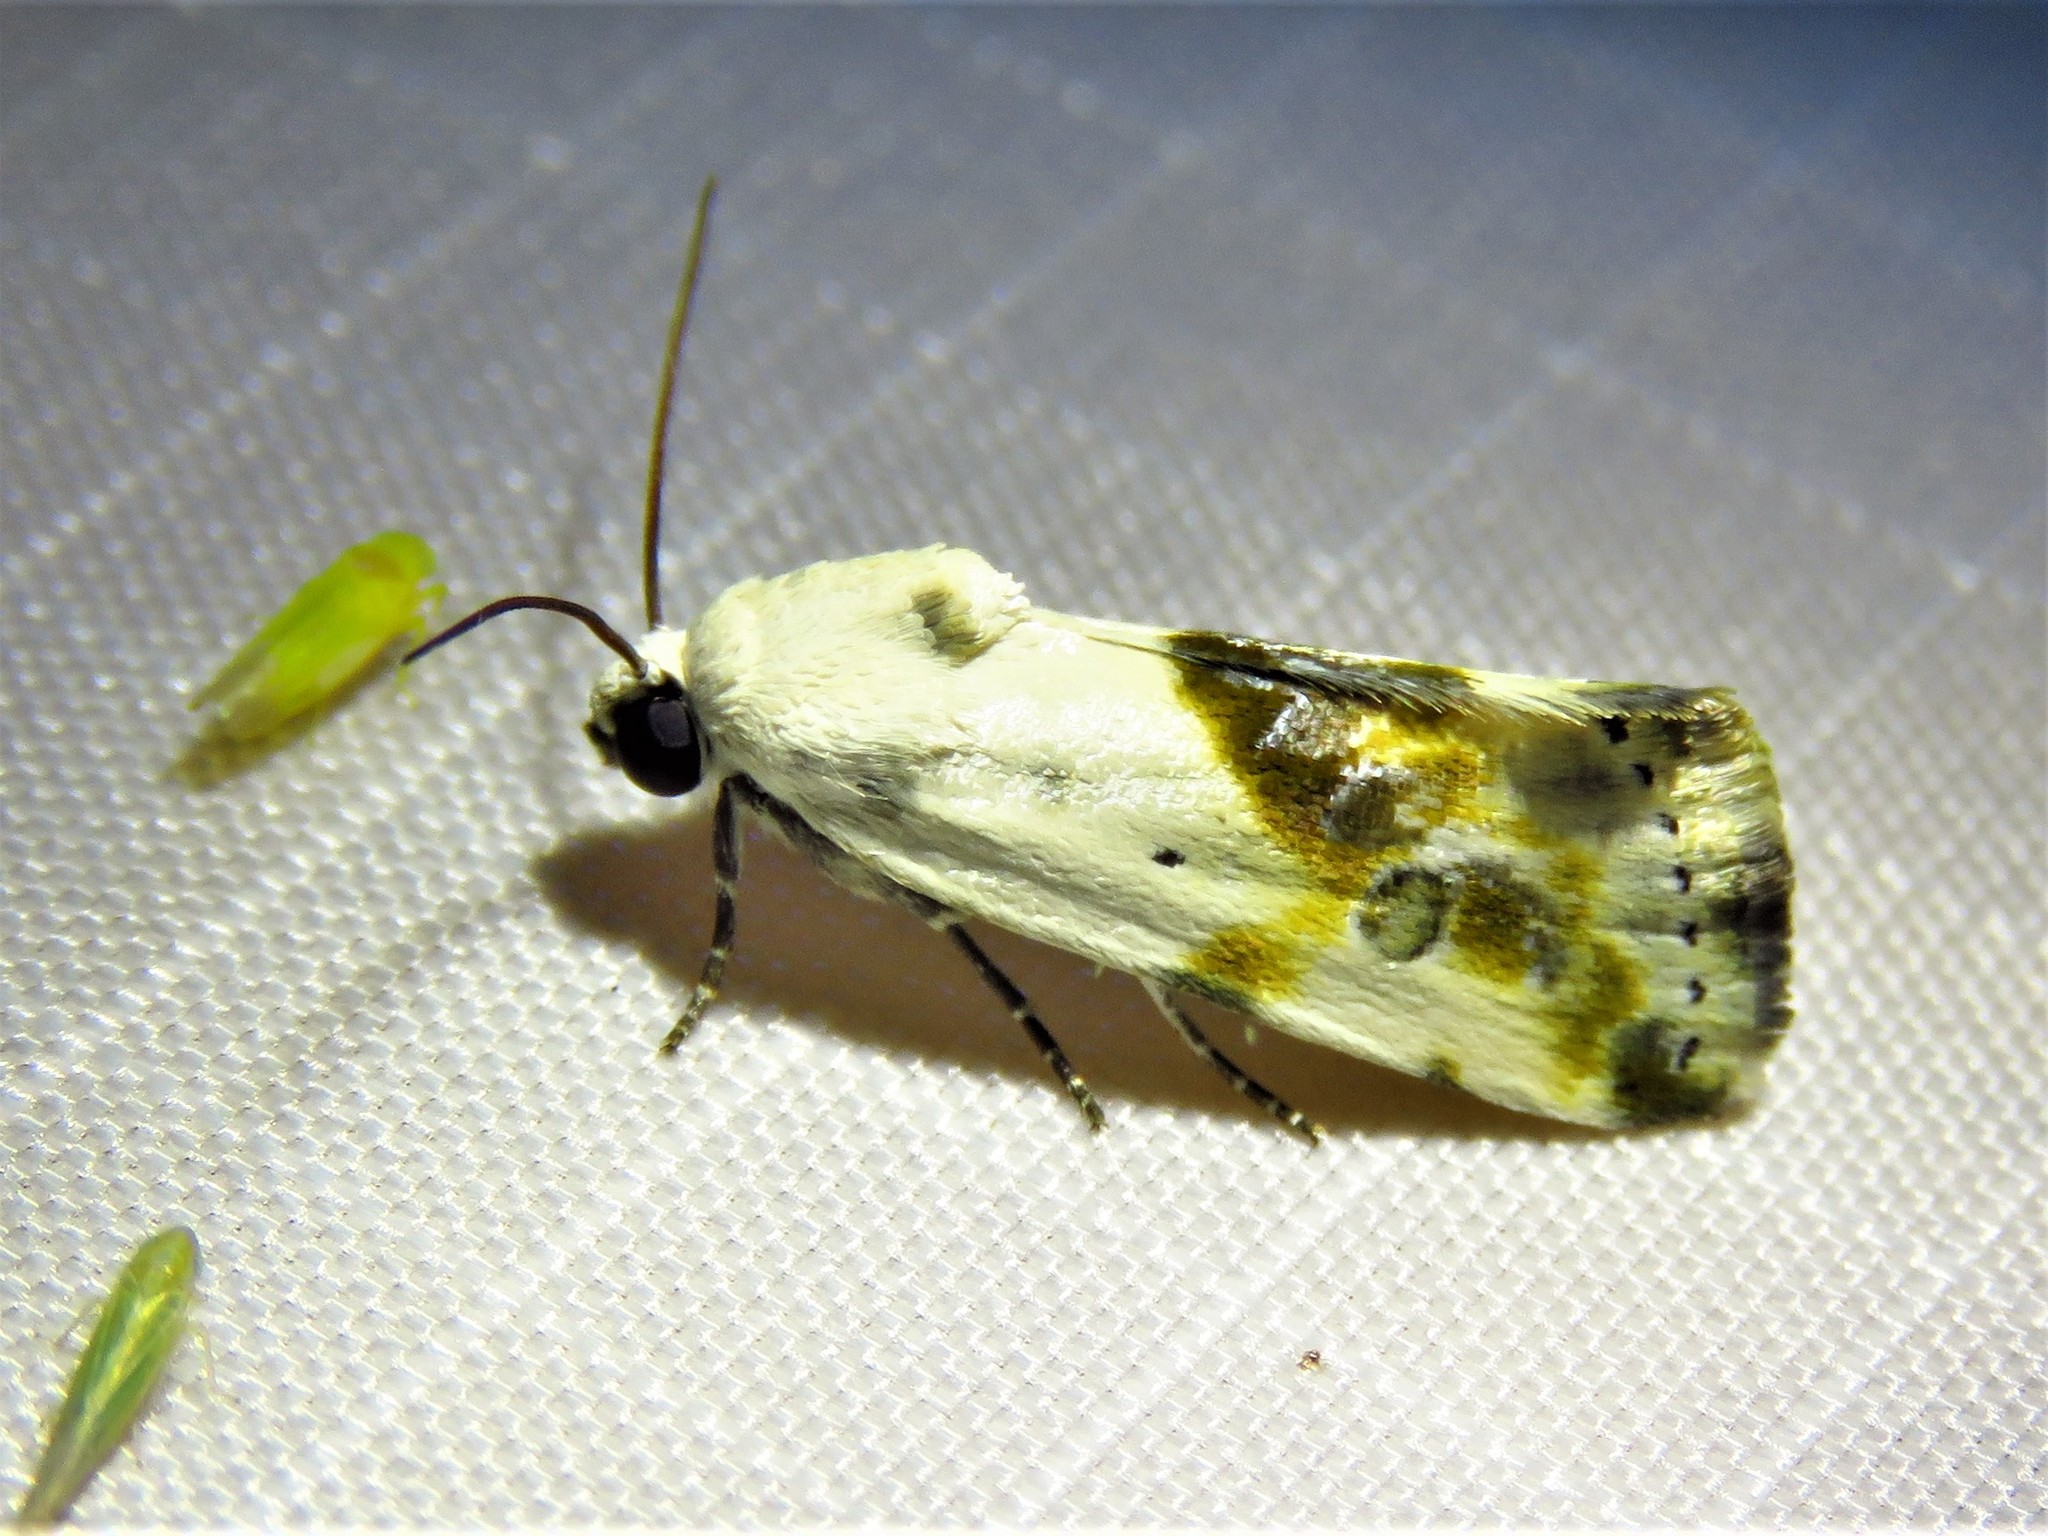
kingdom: Animalia
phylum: Arthropoda
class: Insecta
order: Lepidoptera
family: Noctuidae
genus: Acontia
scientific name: Acontia candefacta
